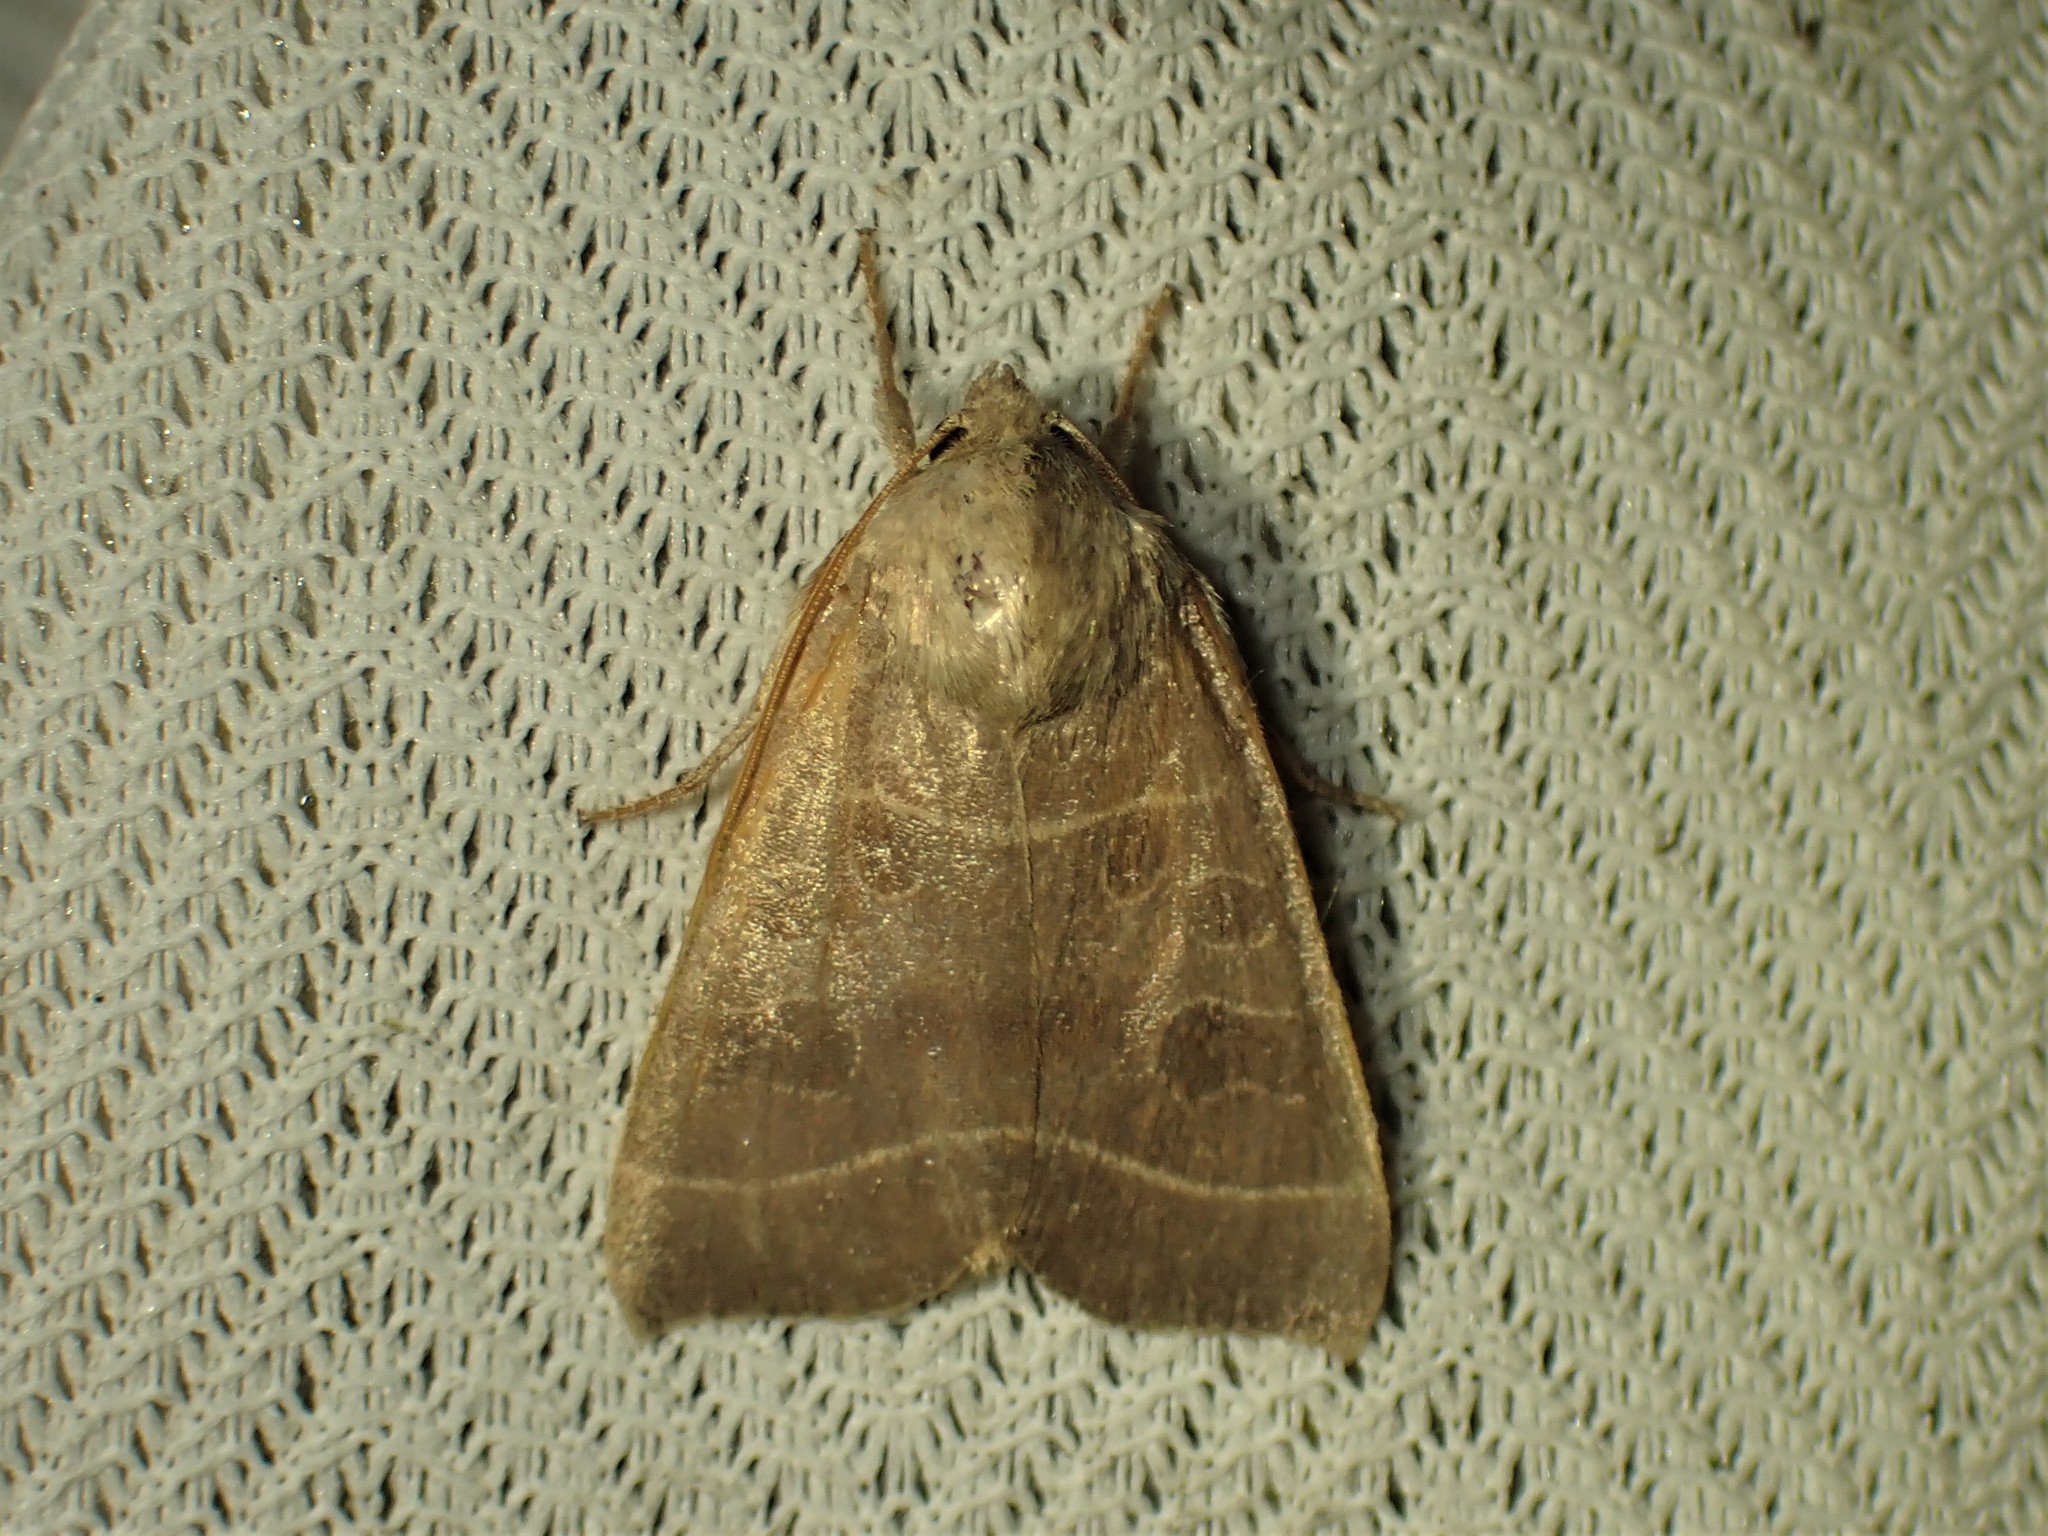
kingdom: Animalia
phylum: Arthropoda
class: Insecta
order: Lepidoptera
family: Noctuidae
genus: Ipimorpha
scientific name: Ipimorpha pleonectusa
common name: Even-lined sallow
